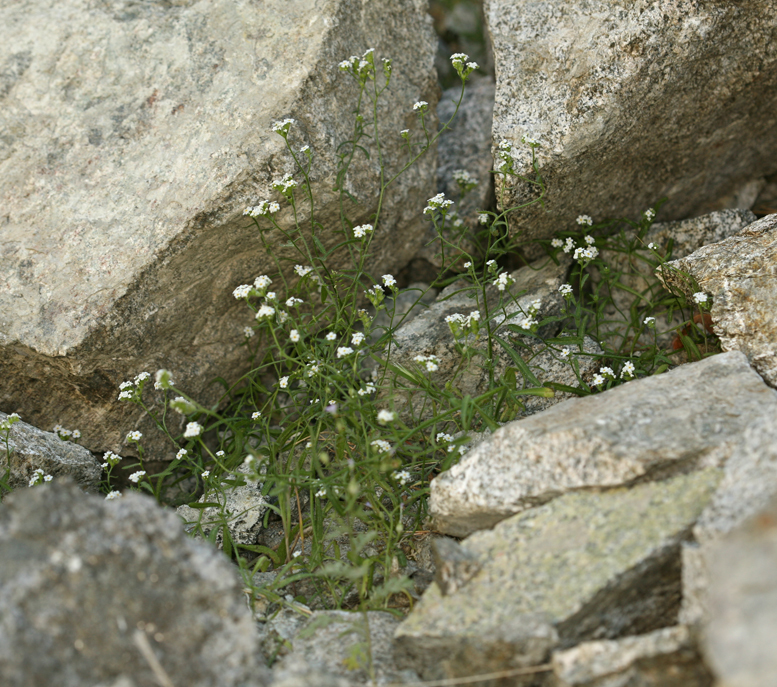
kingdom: Plantae
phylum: Tracheophyta
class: Magnoliopsida
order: Boraginales
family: Boraginaceae
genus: Cryptantha
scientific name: Cryptantha utahensis
